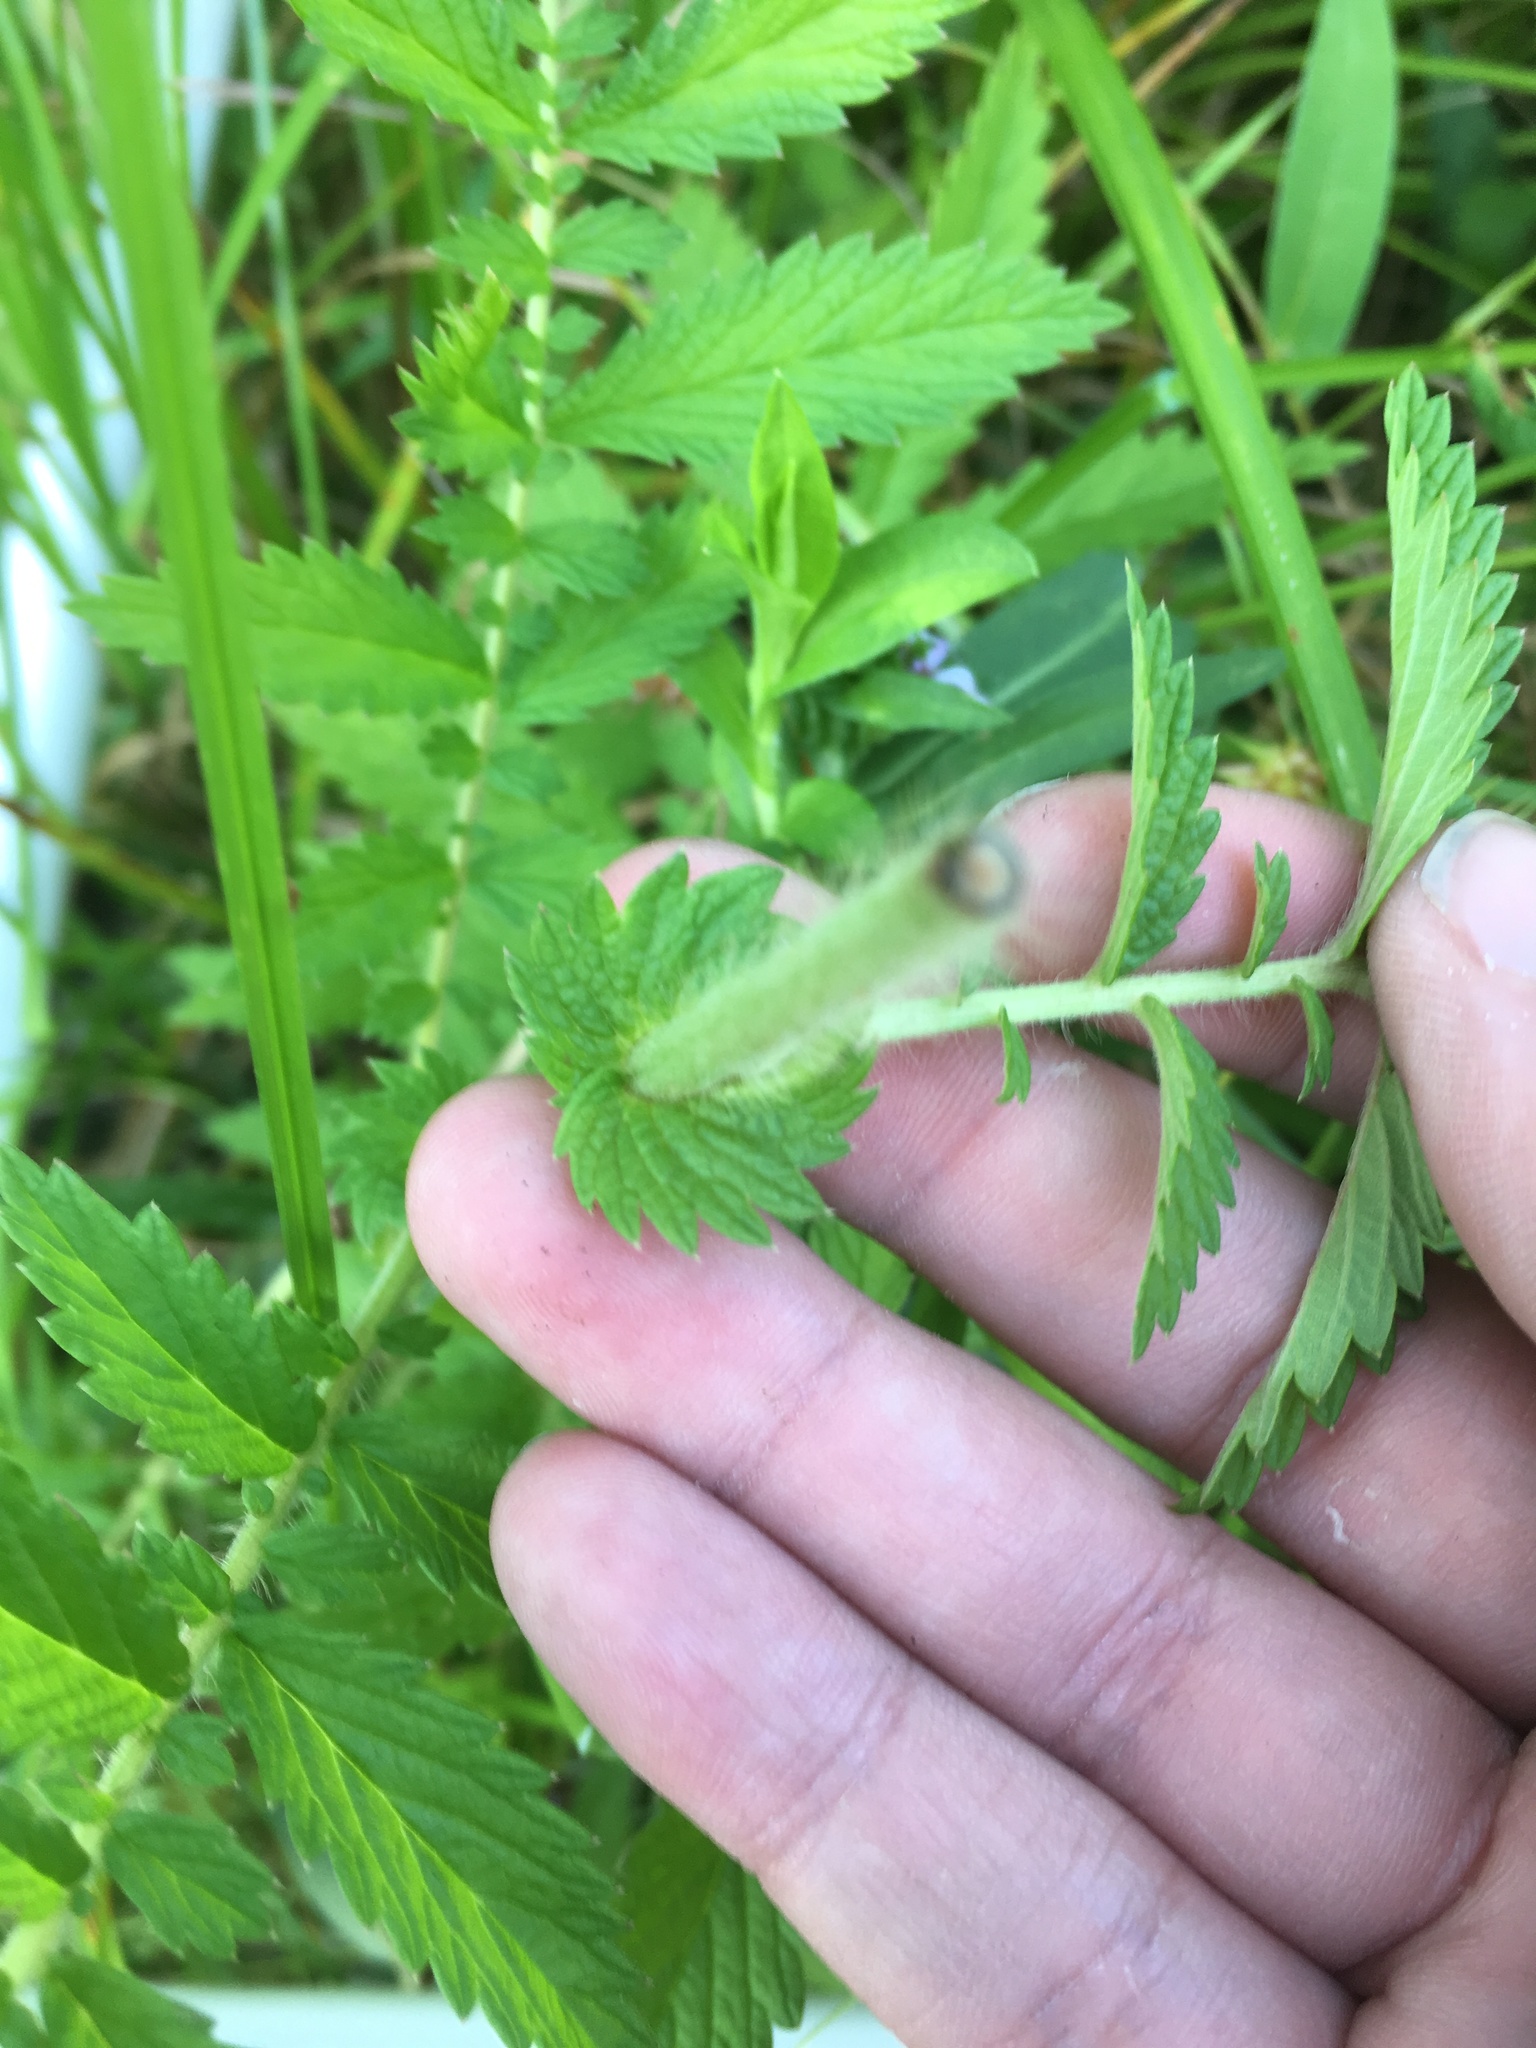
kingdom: Plantae
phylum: Tracheophyta
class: Magnoliopsida
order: Rosales
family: Rosaceae
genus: Agrimonia
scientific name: Agrimonia parviflora
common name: Harvest-lice
